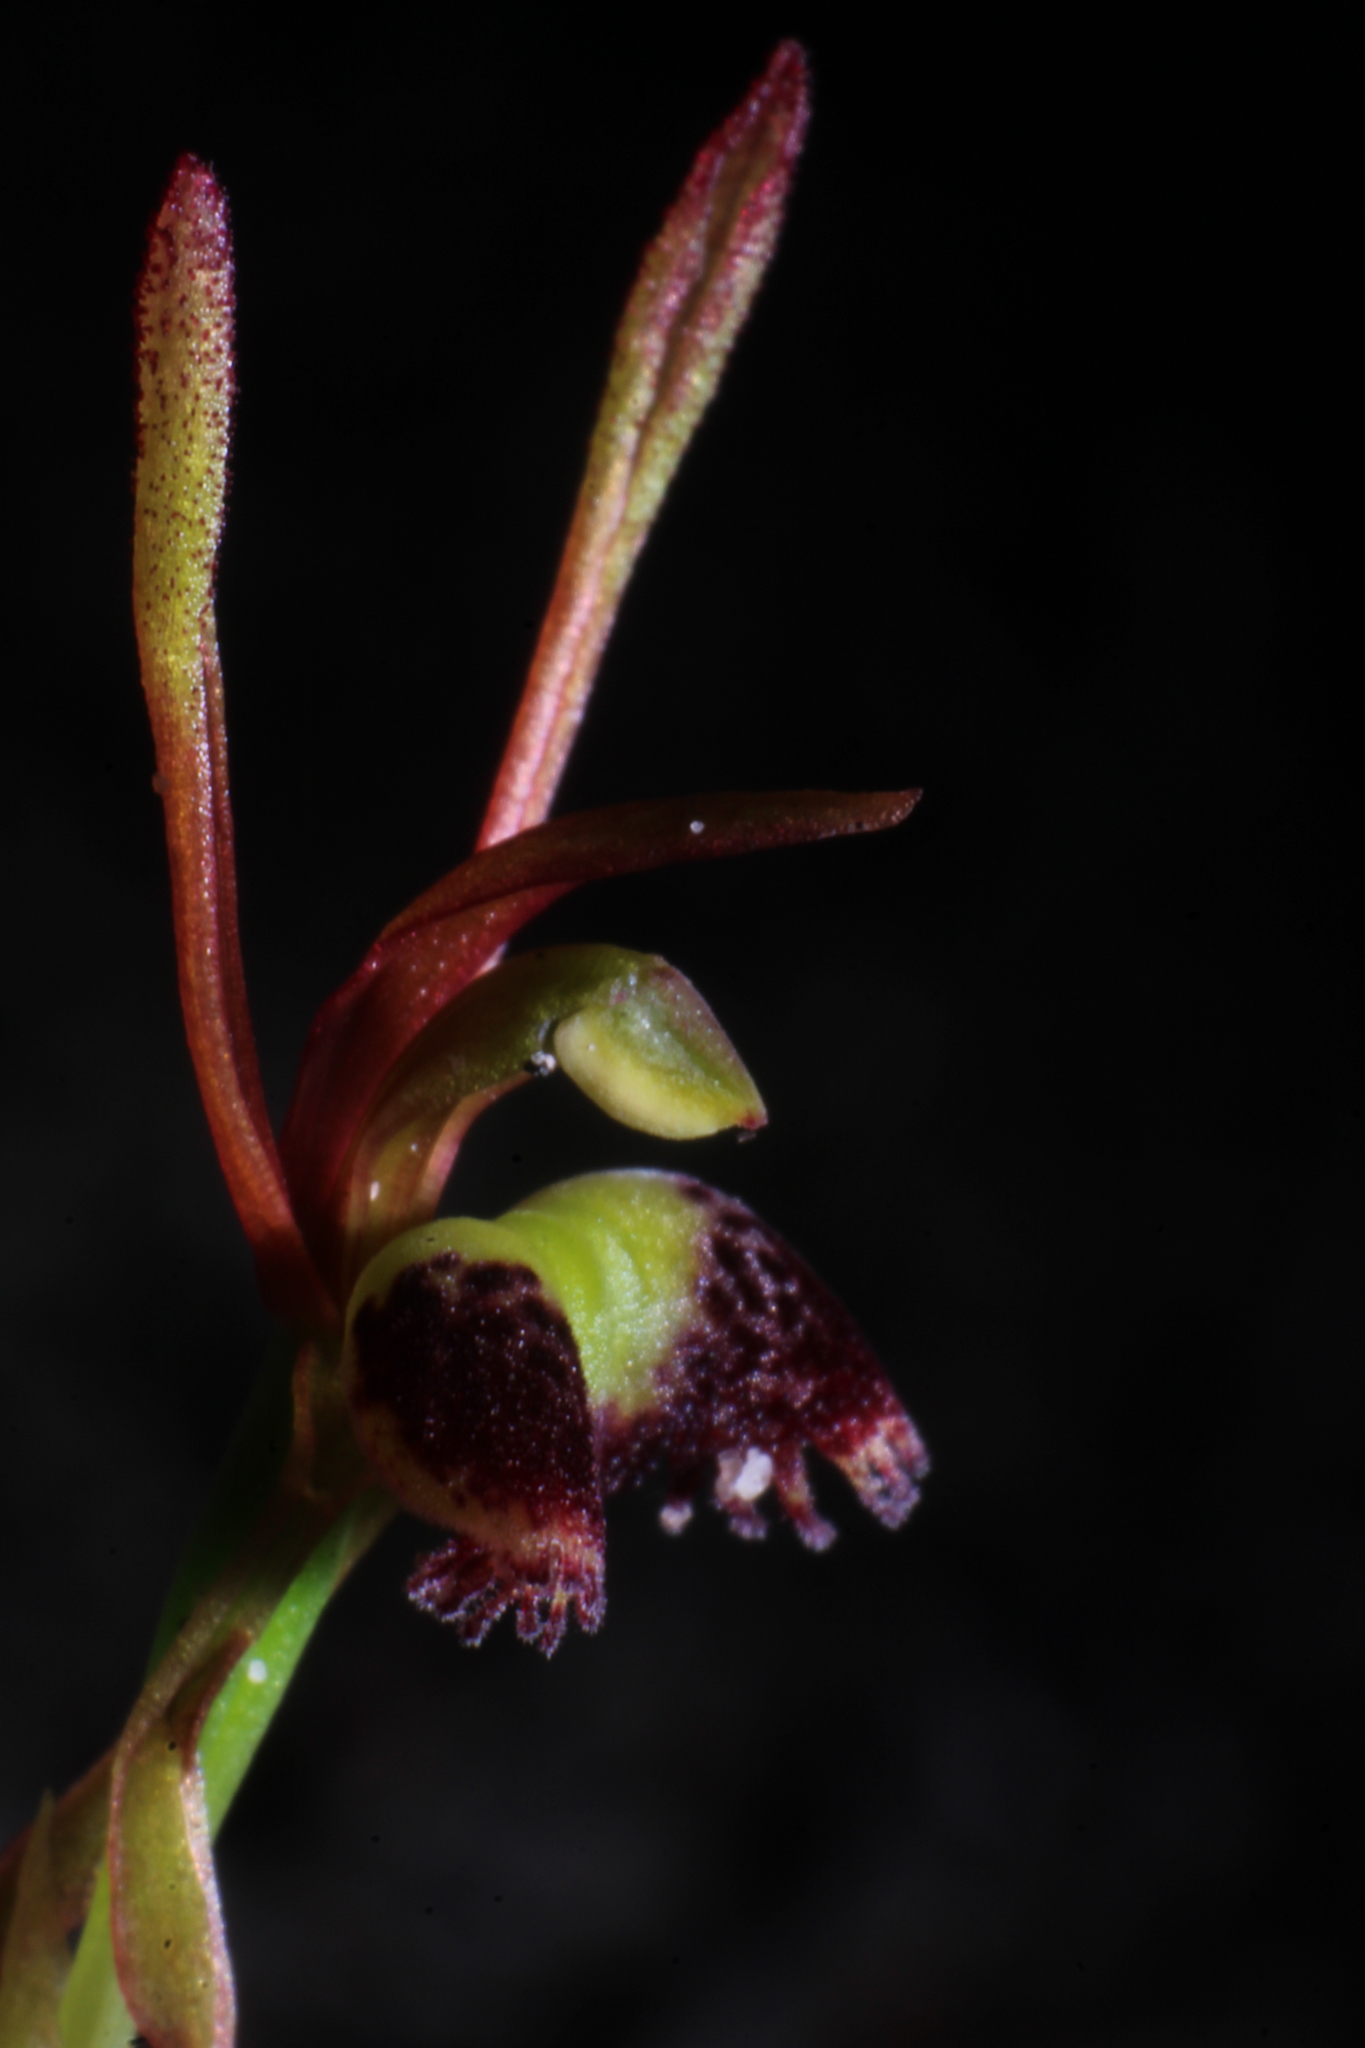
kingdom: Plantae
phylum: Tracheophyta
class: Liliopsida
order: Asparagales
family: Orchidaceae
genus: Leporella
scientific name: Leporella fimbriata
